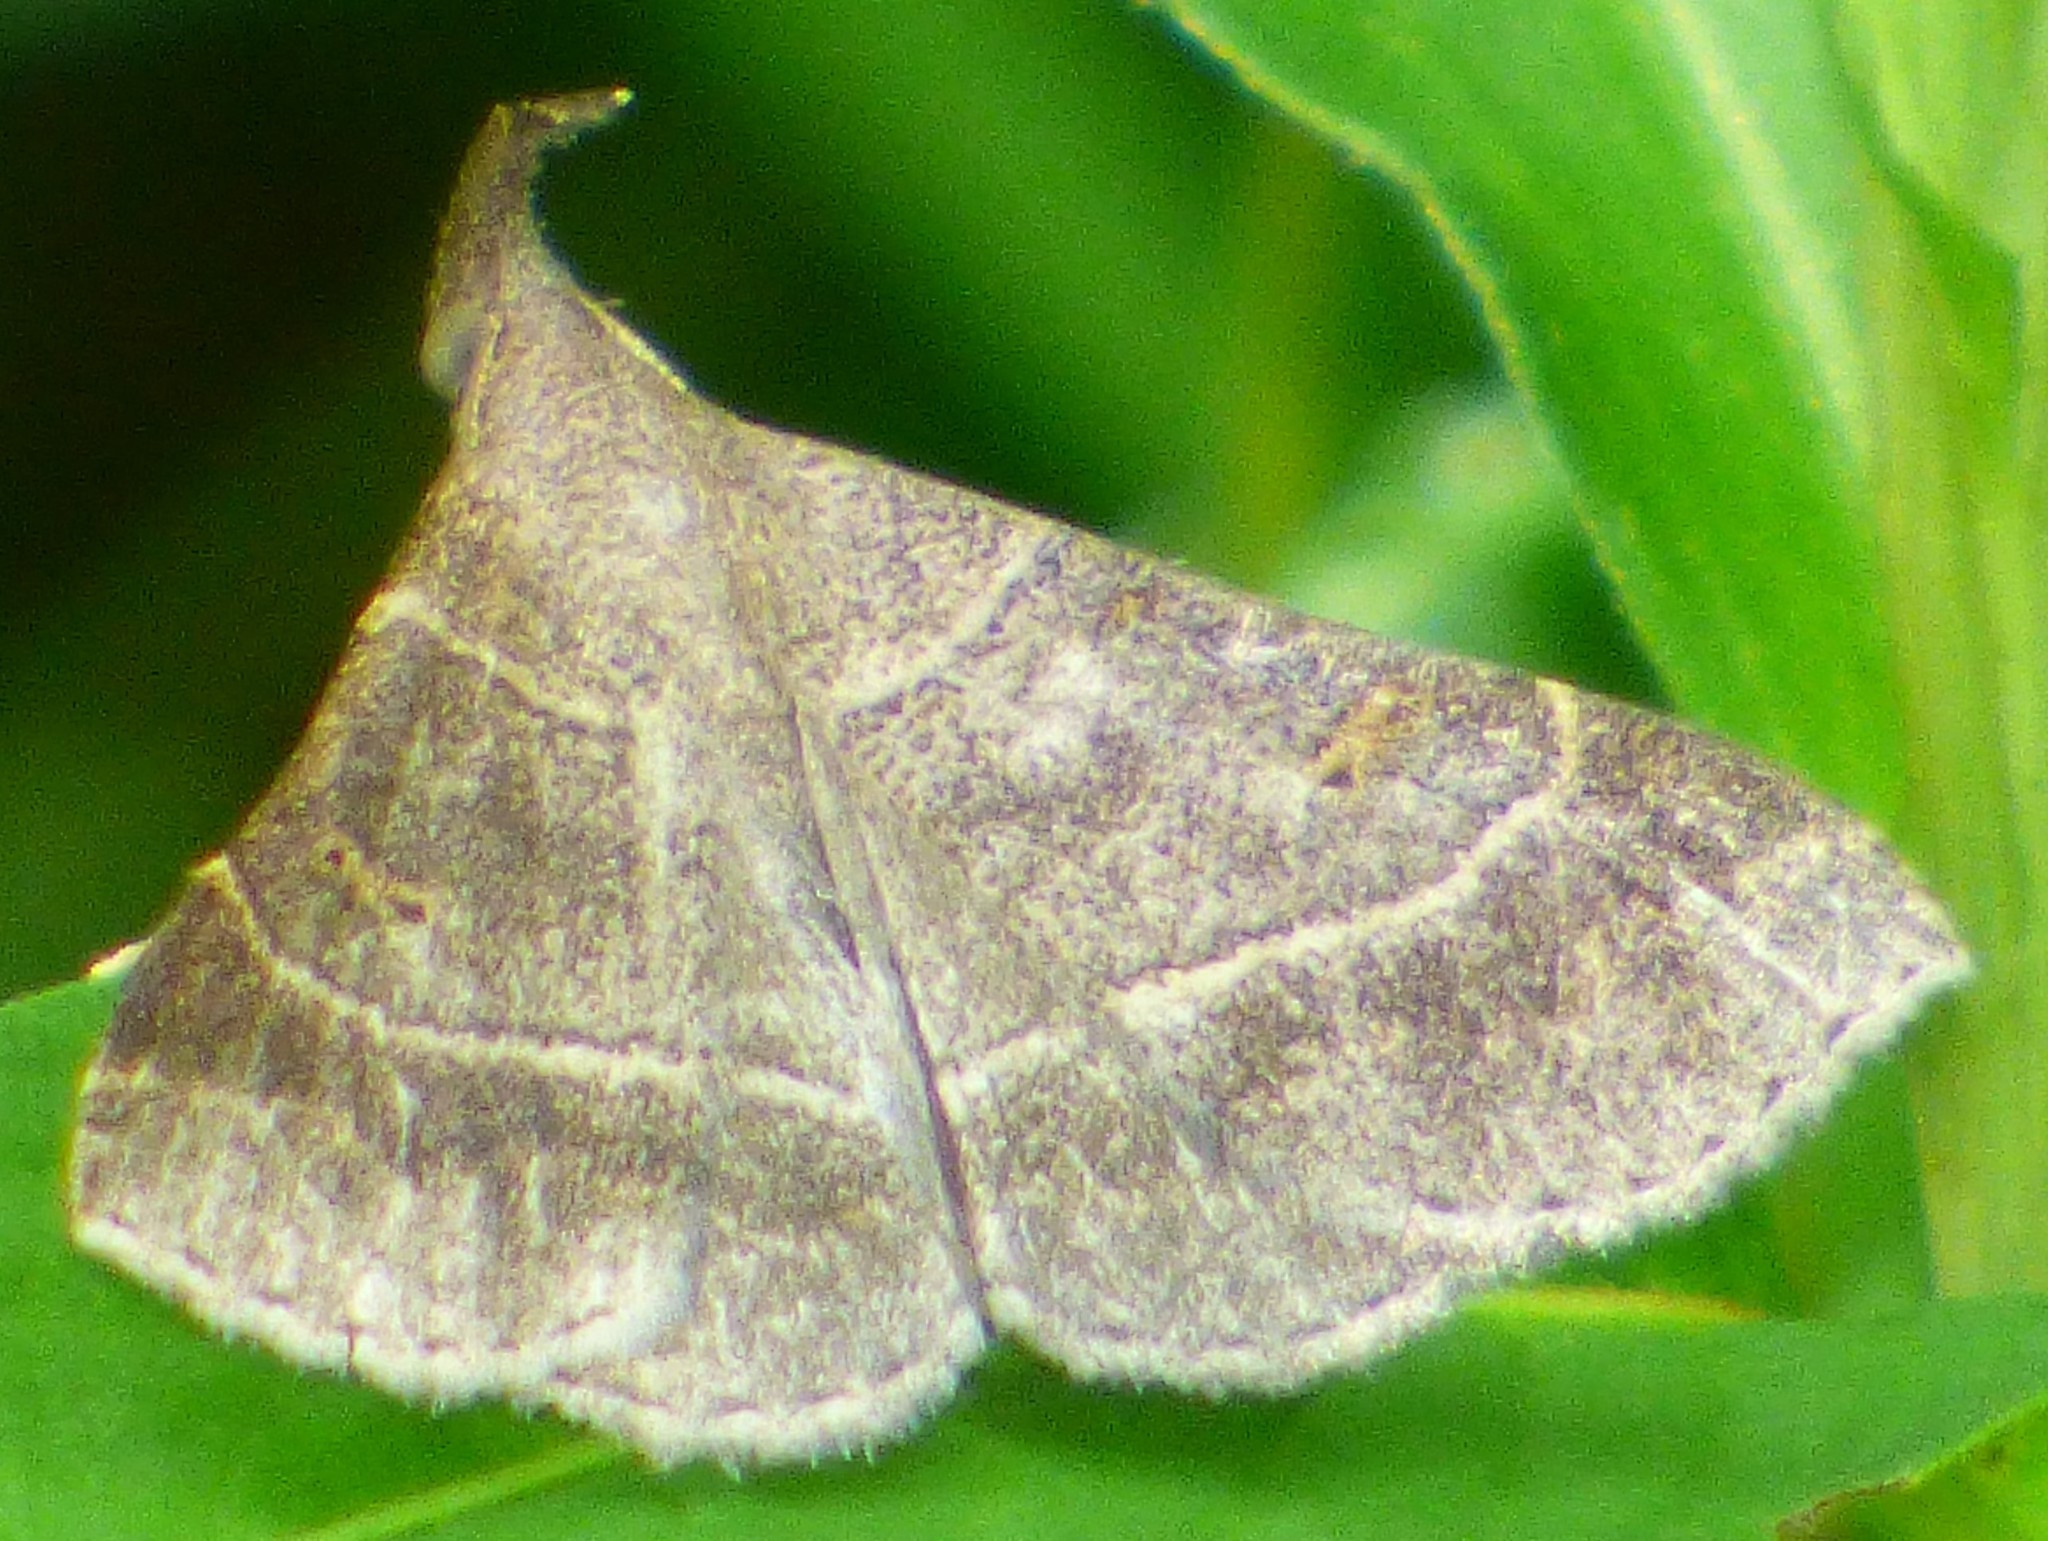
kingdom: Animalia
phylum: Arthropoda
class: Insecta
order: Lepidoptera
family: Erebidae
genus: Renia
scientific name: Renia flavipunctalis
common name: Yellow-spotted renia moth
